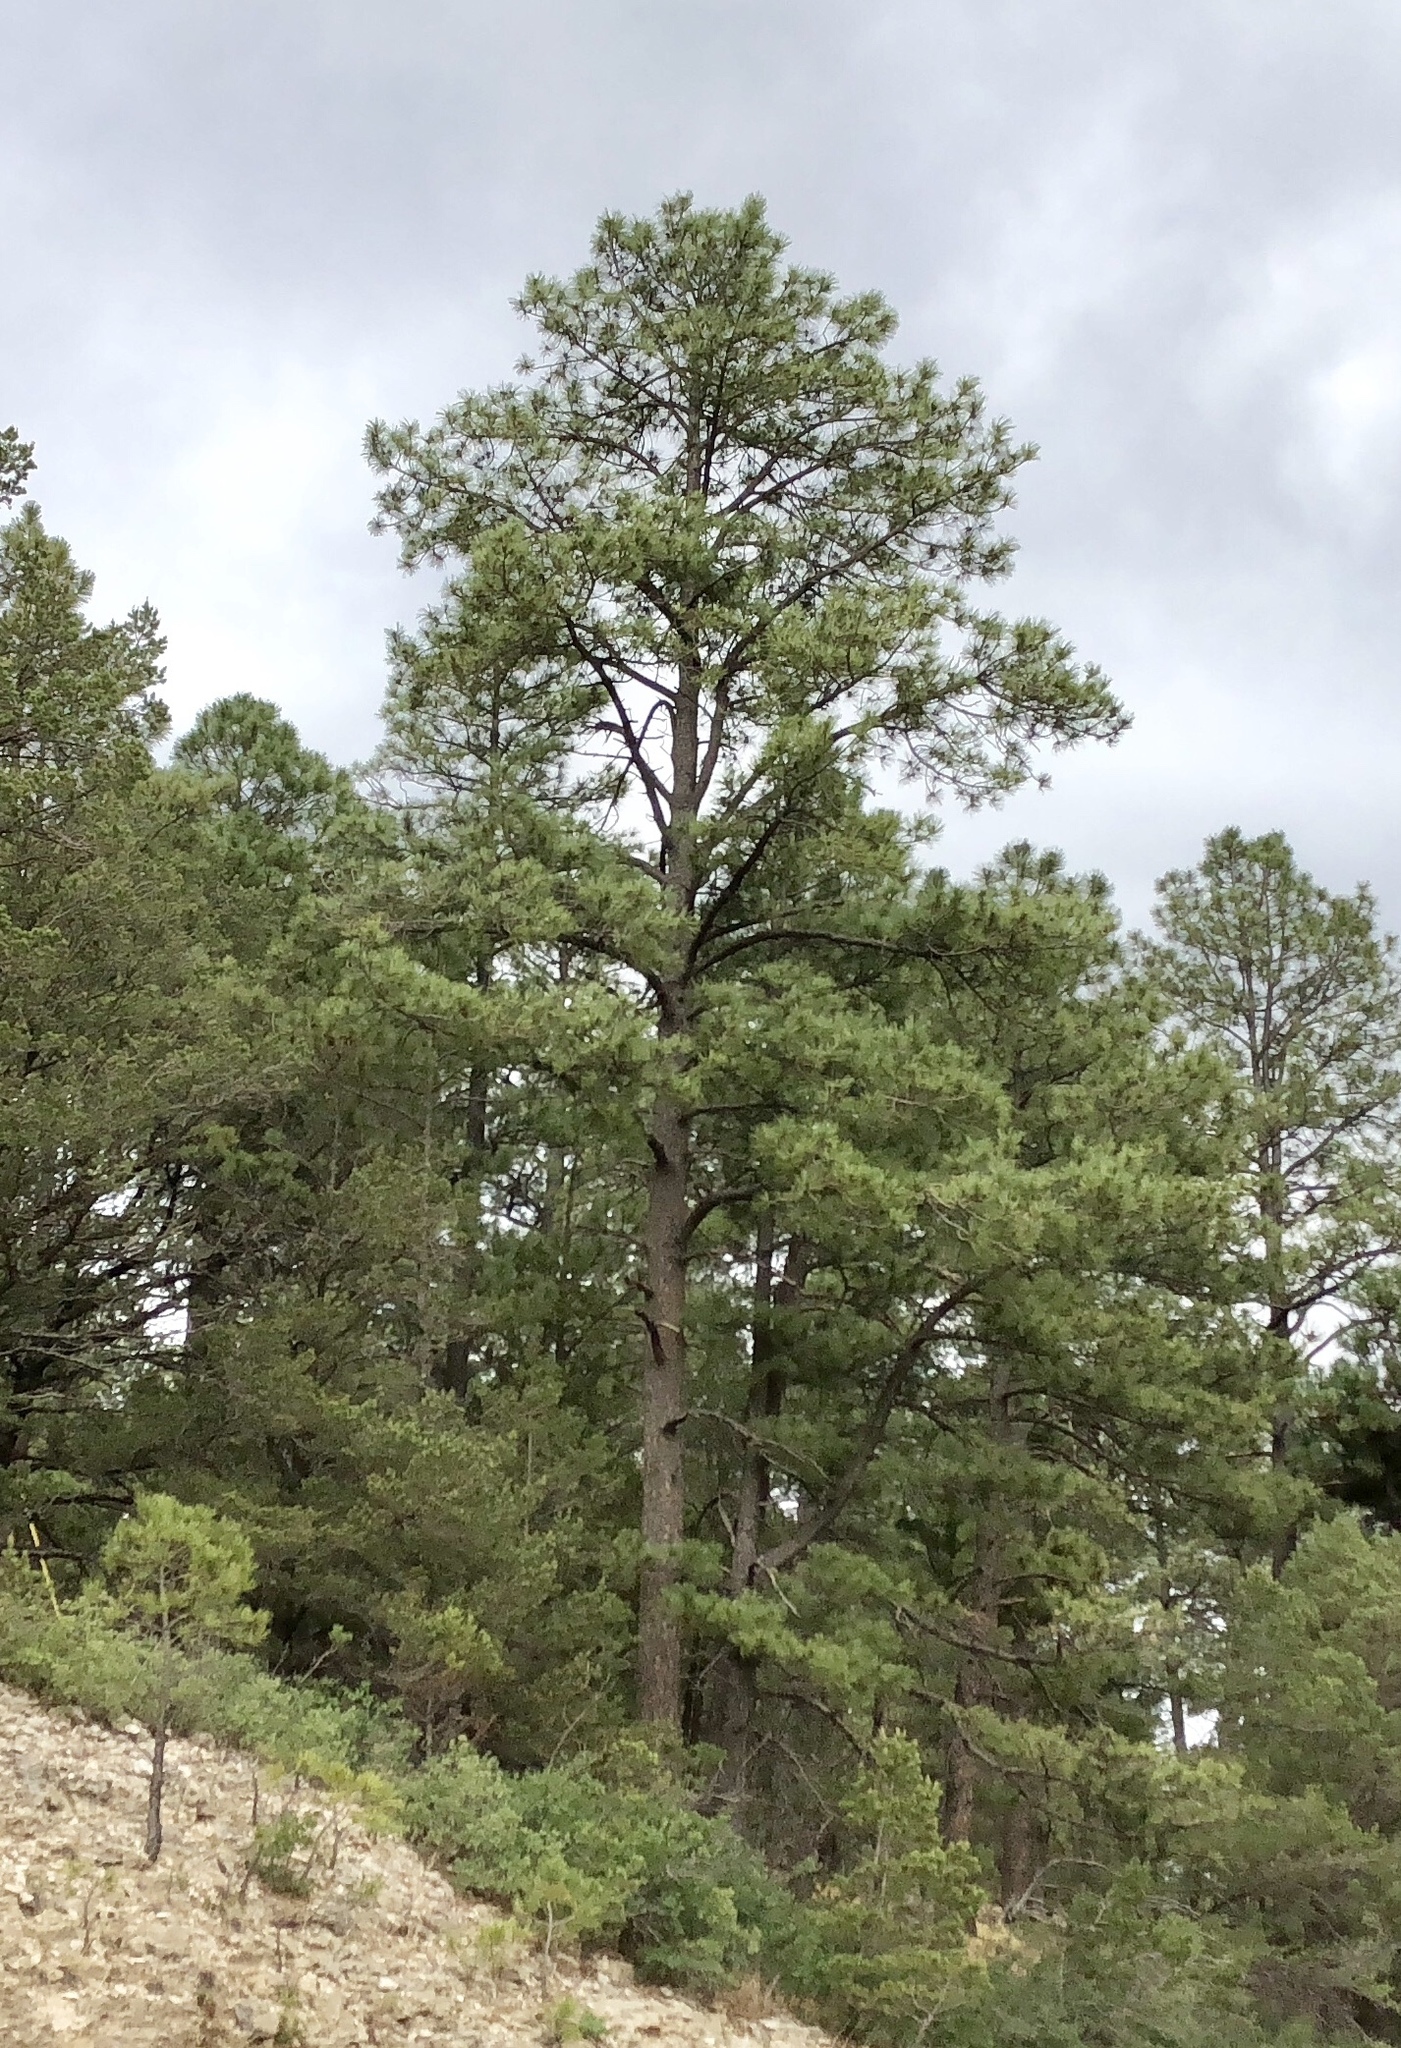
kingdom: Plantae
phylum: Tracheophyta
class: Pinopsida
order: Pinales
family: Pinaceae
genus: Pinus
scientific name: Pinus ponderosa
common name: Western yellow-pine
